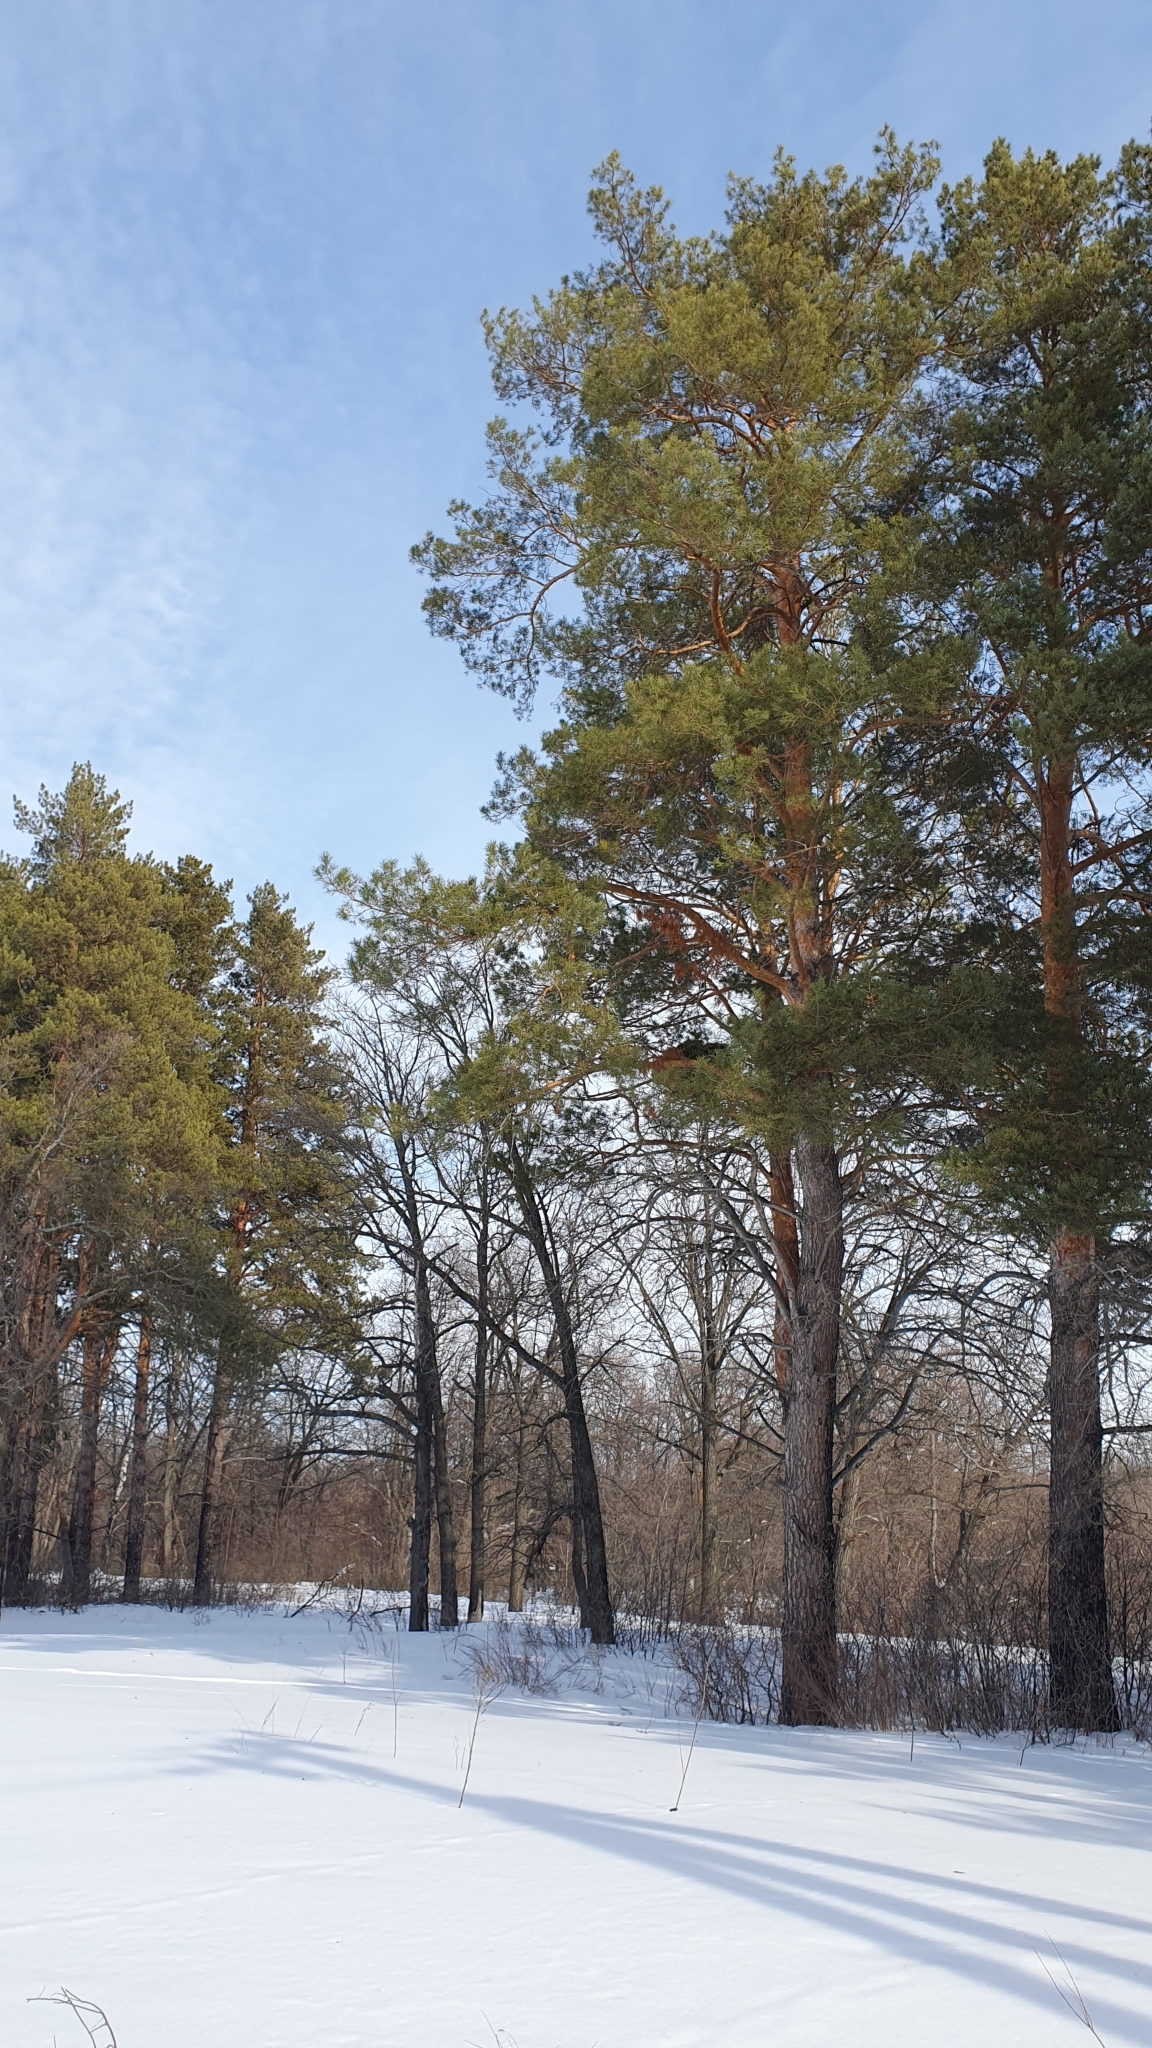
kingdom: Plantae
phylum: Tracheophyta
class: Pinopsida
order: Pinales
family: Pinaceae
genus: Pinus
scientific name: Pinus sylvestris
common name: Scots pine
